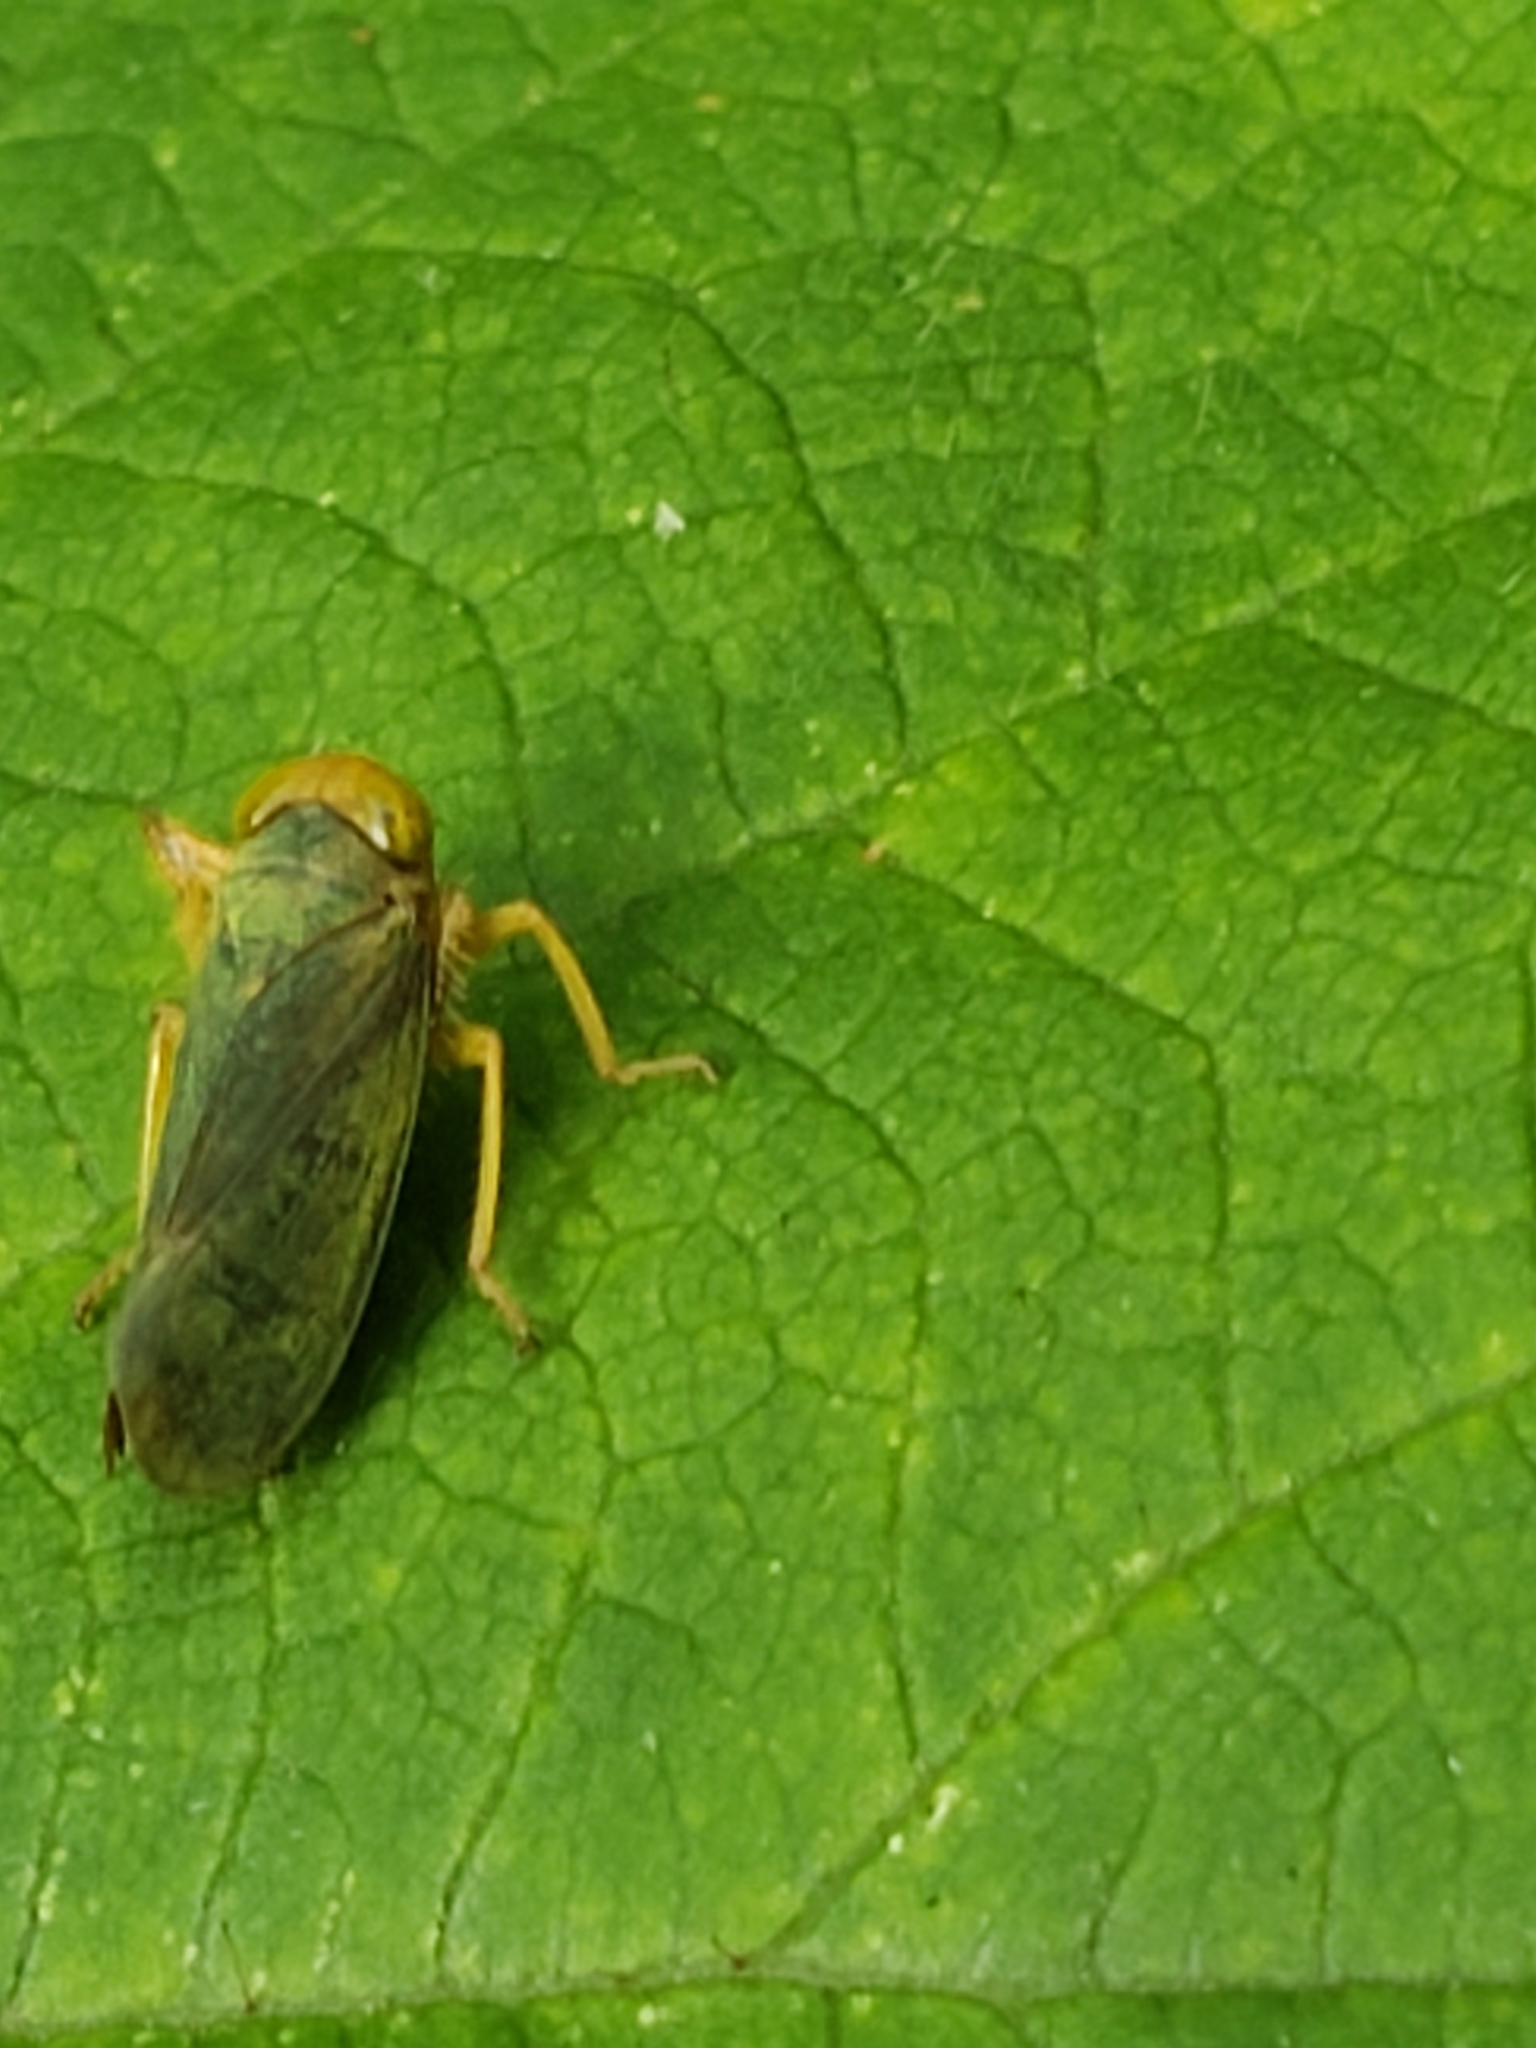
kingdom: Animalia
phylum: Arthropoda
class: Insecta
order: Hemiptera
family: Cicadellidae
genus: Jikradia
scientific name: Jikradia olitoria
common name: Coppery leafhopper
